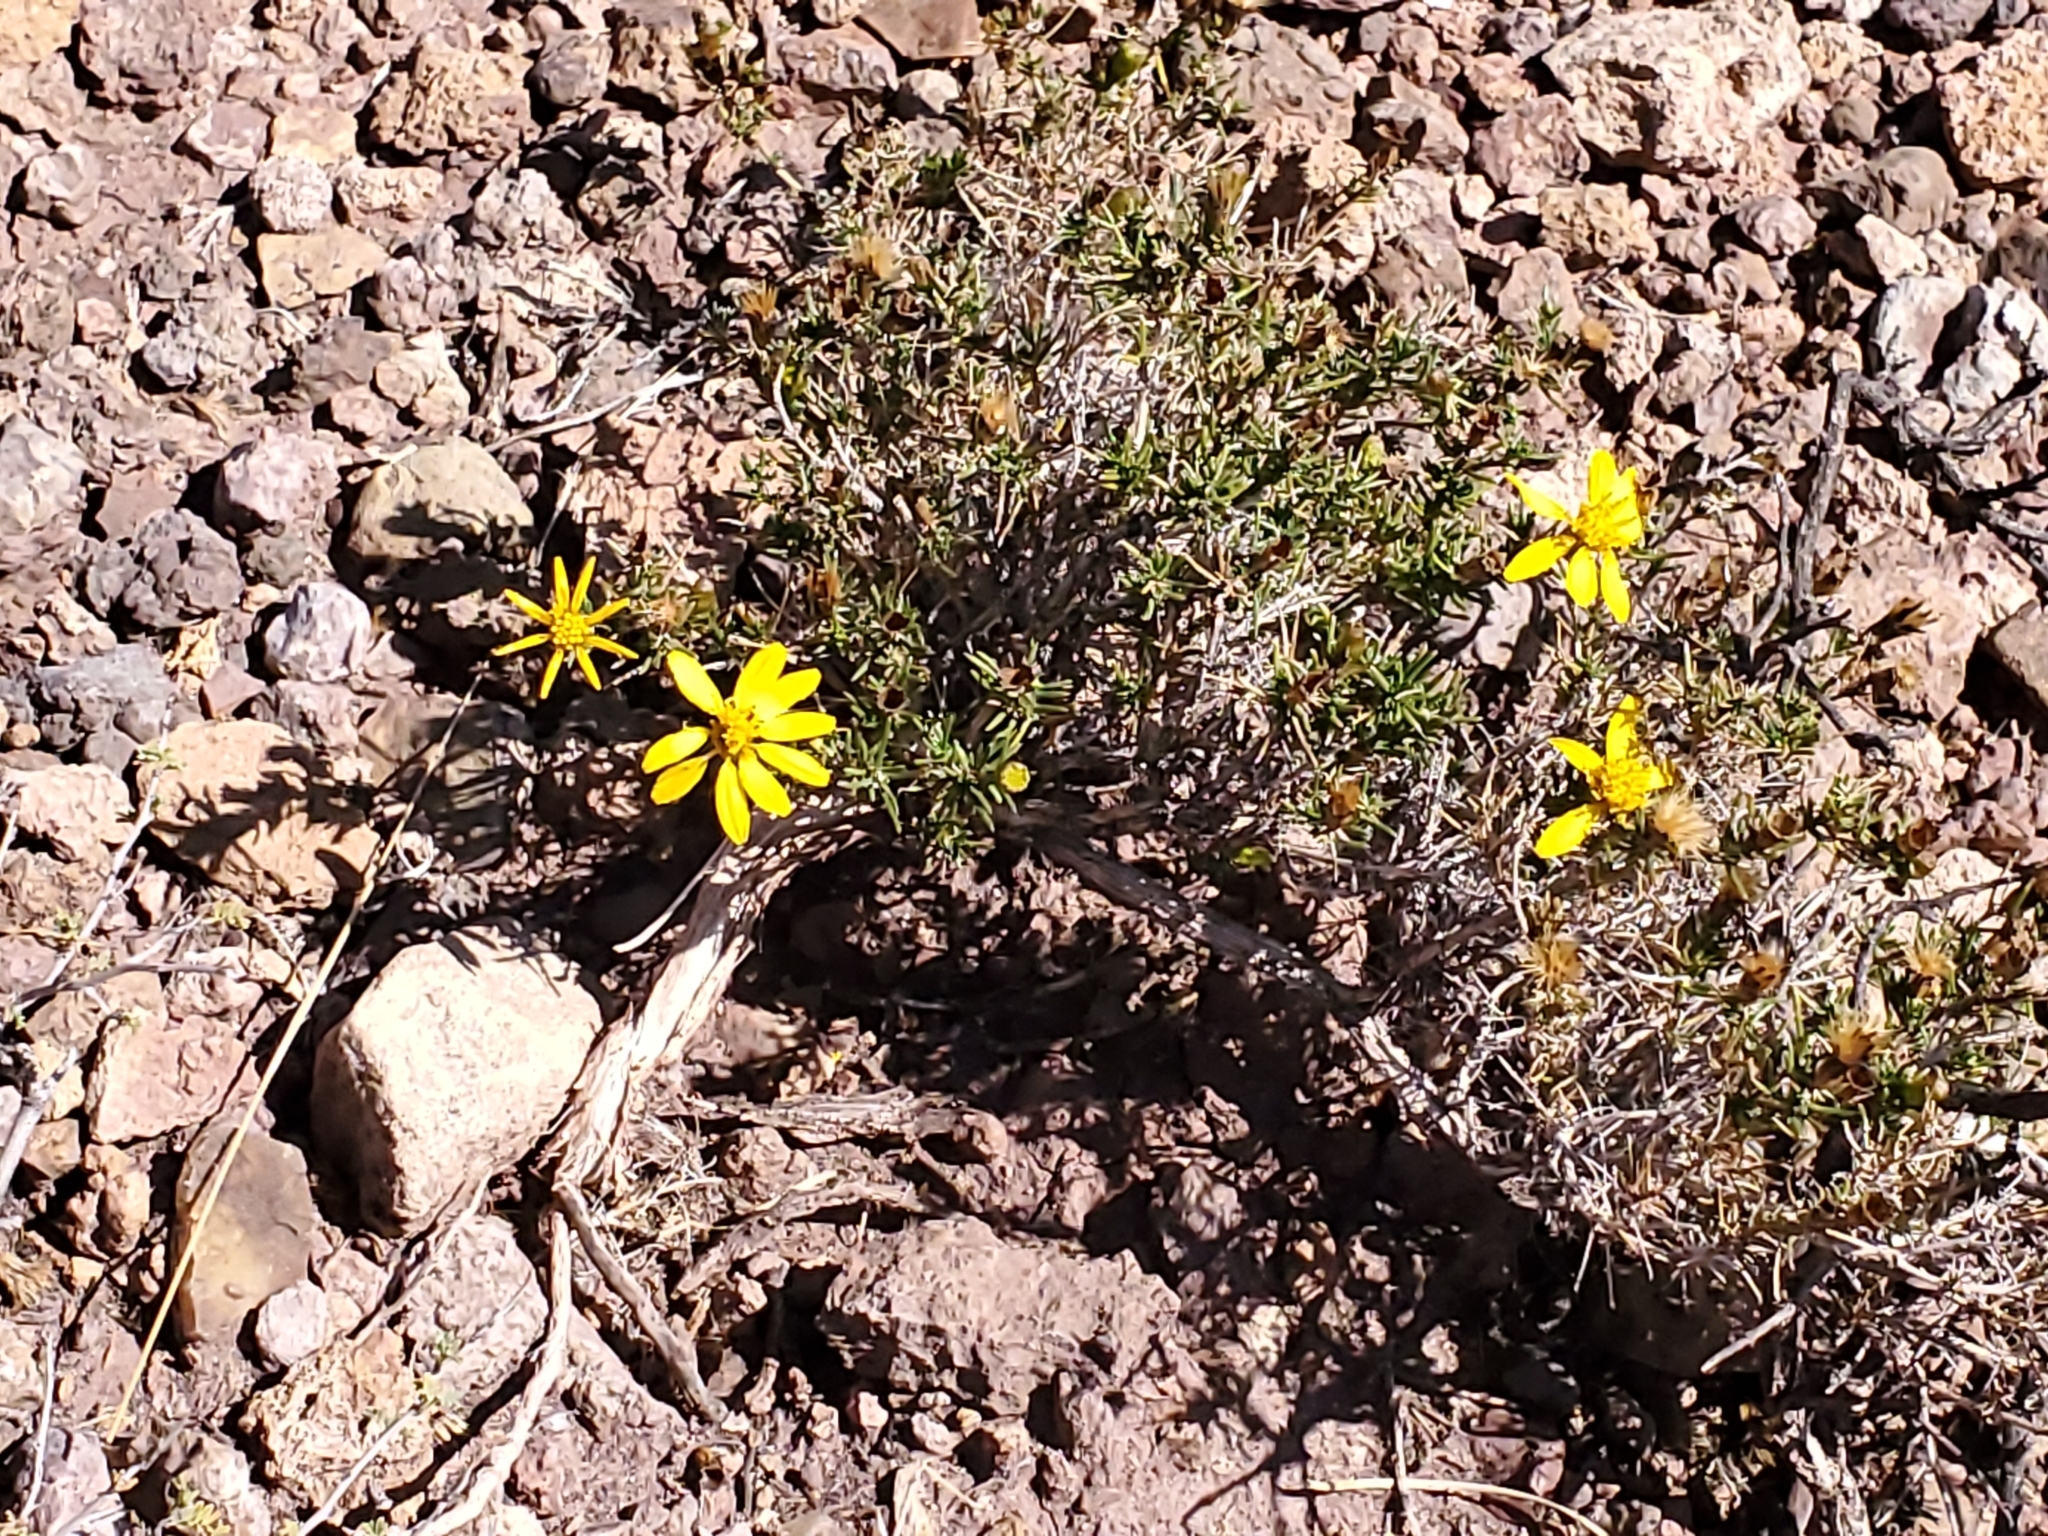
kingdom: Plantae
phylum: Tracheophyta
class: Magnoliopsida
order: Asterales
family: Asteraceae
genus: Thymophylla
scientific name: Thymophylla acerosa
